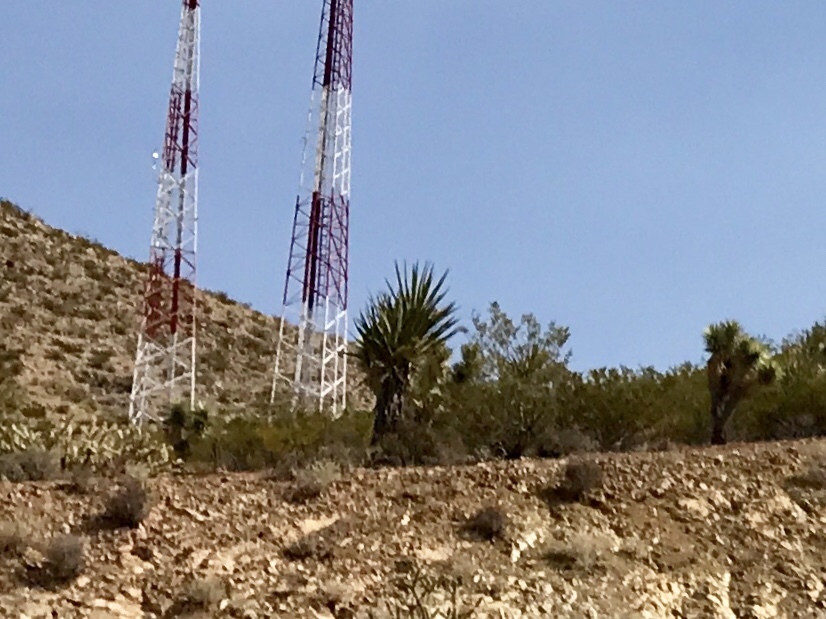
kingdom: Plantae
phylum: Tracheophyta
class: Liliopsida
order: Asparagales
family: Asparagaceae
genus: Yucca
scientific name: Yucca schidigera
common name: Mojave yucca
